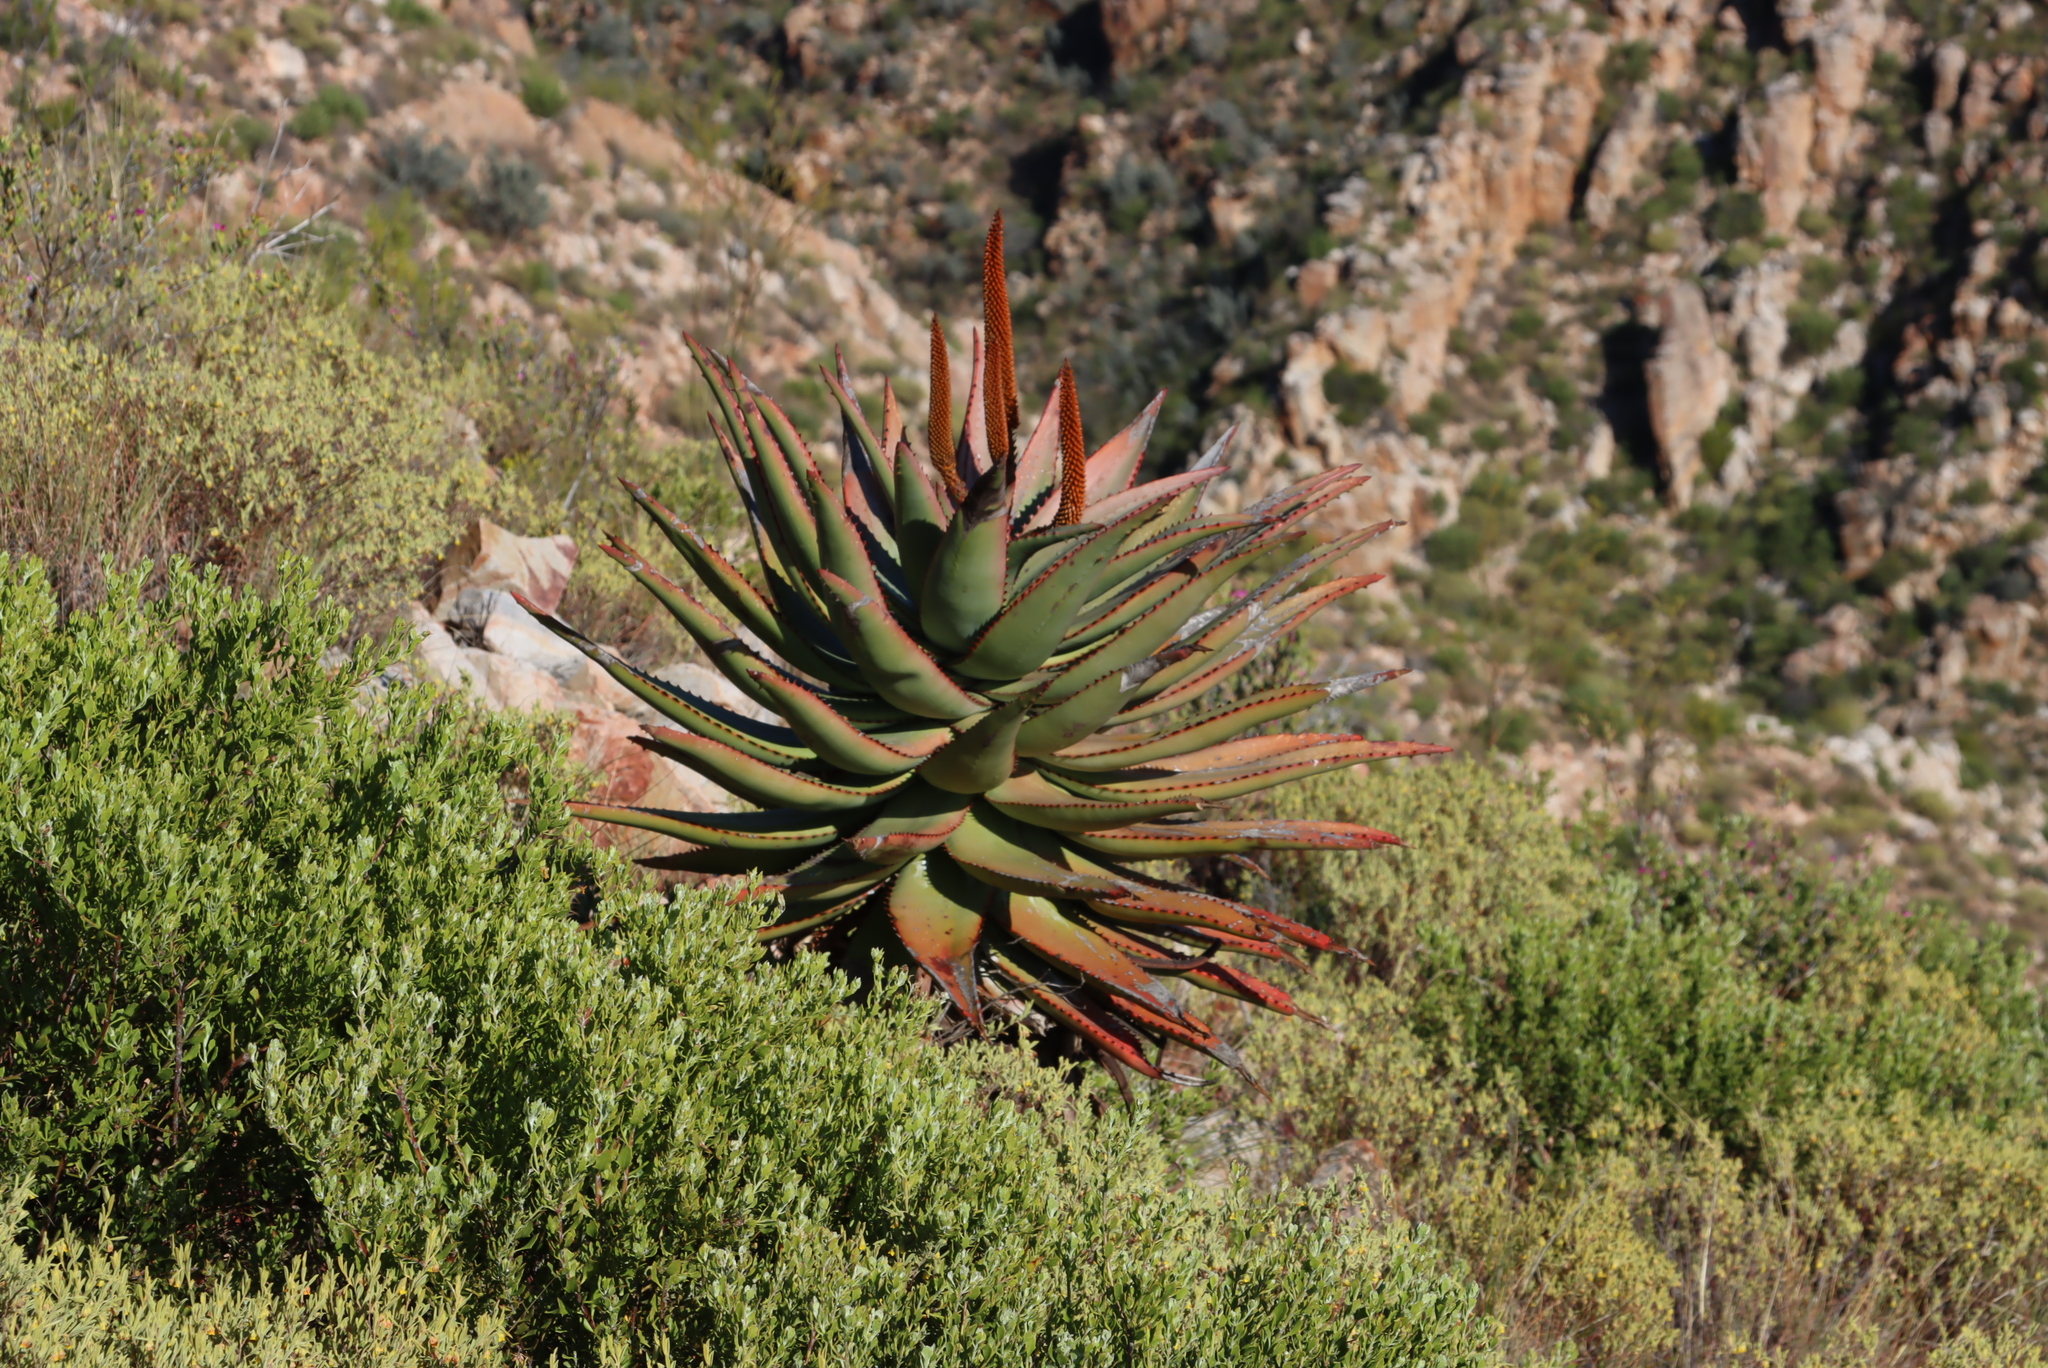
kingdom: Plantae
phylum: Tracheophyta
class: Liliopsida
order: Asparagales
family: Asphodelaceae
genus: Aloe
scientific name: Aloe ferox
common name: Bitter aloe
